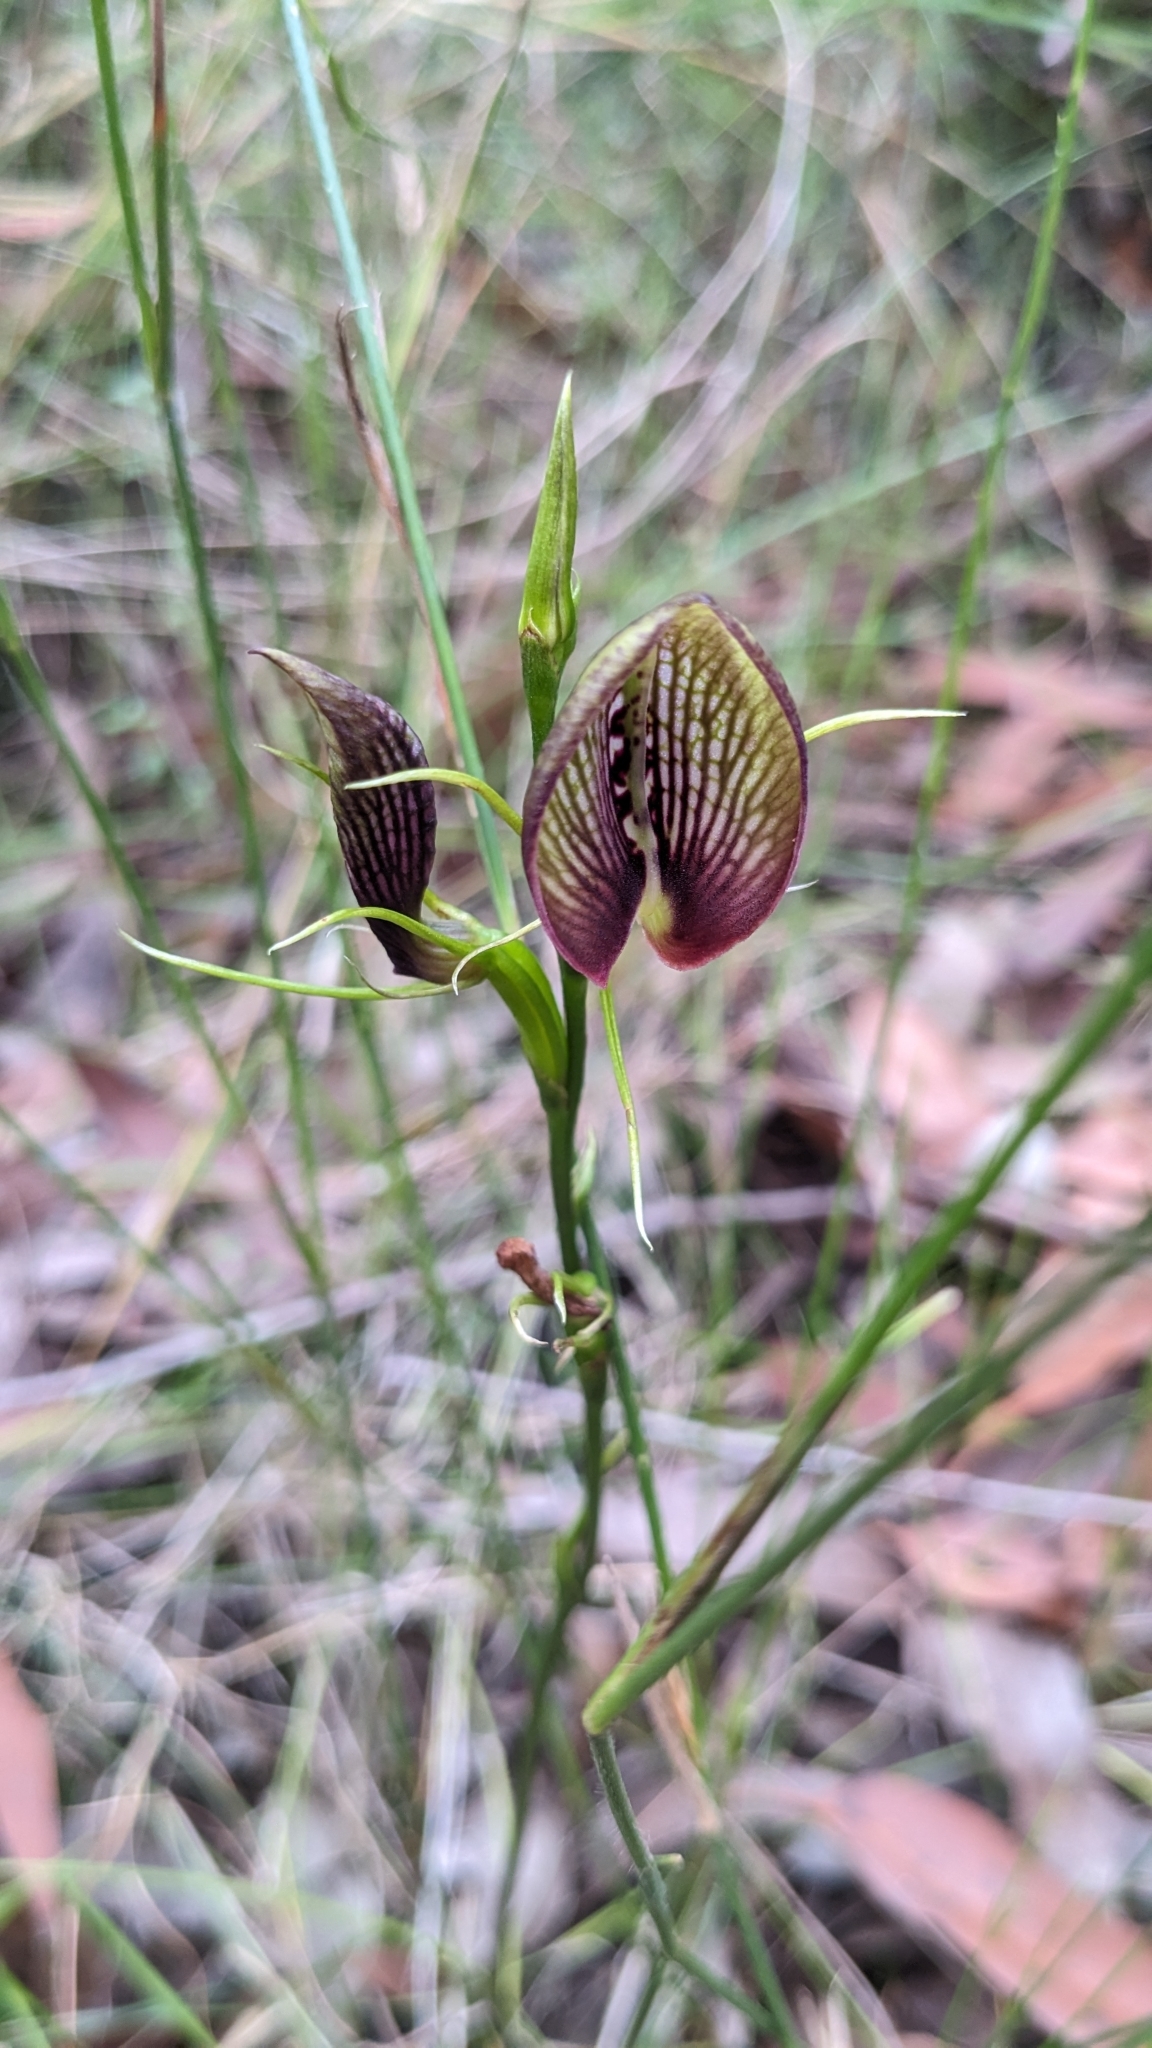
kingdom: Plantae
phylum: Tracheophyta
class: Liliopsida
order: Asparagales
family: Orchidaceae
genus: Cryptostylis
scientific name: Cryptostylis erecta
